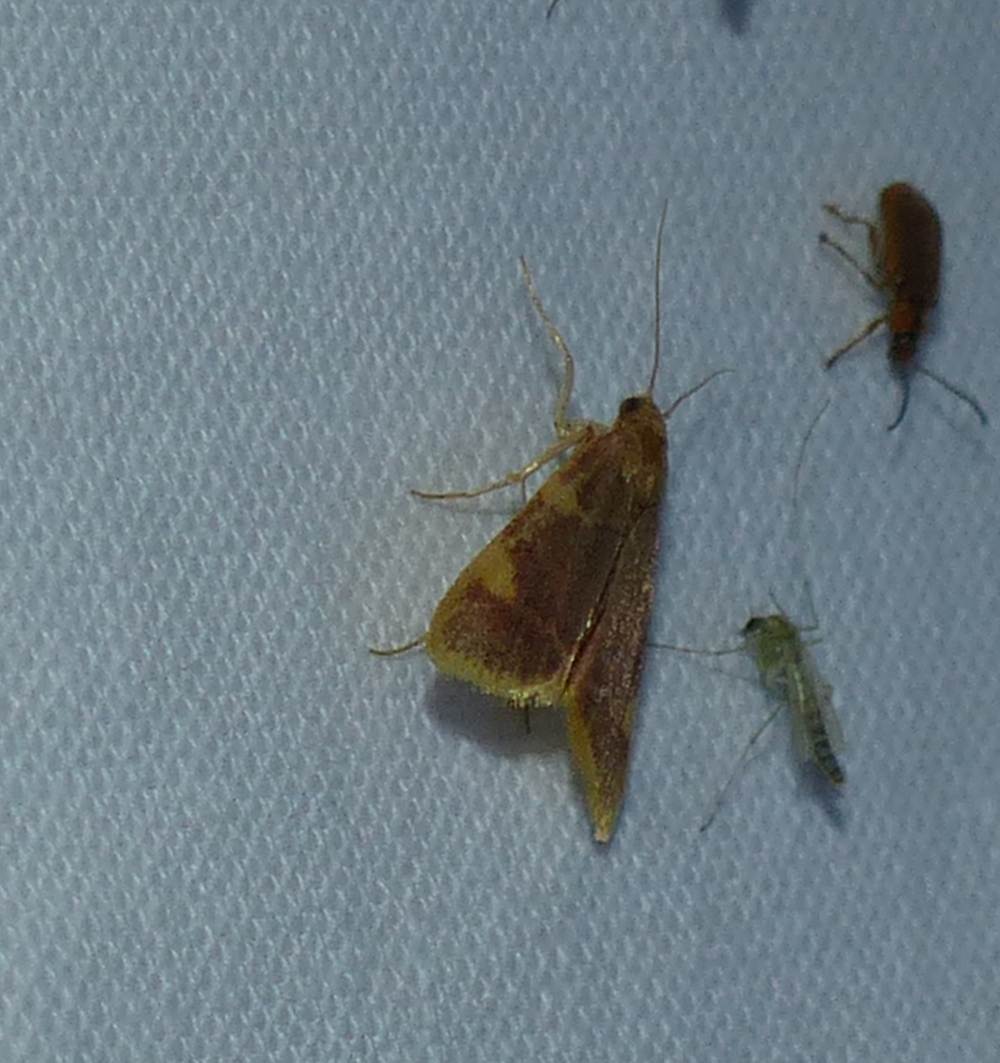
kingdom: Animalia
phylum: Arthropoda
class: Insecta
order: Lepidoptera
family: Pyralidae
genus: Hypsopygia
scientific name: Hypsopygia costalis
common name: Gold triangle
